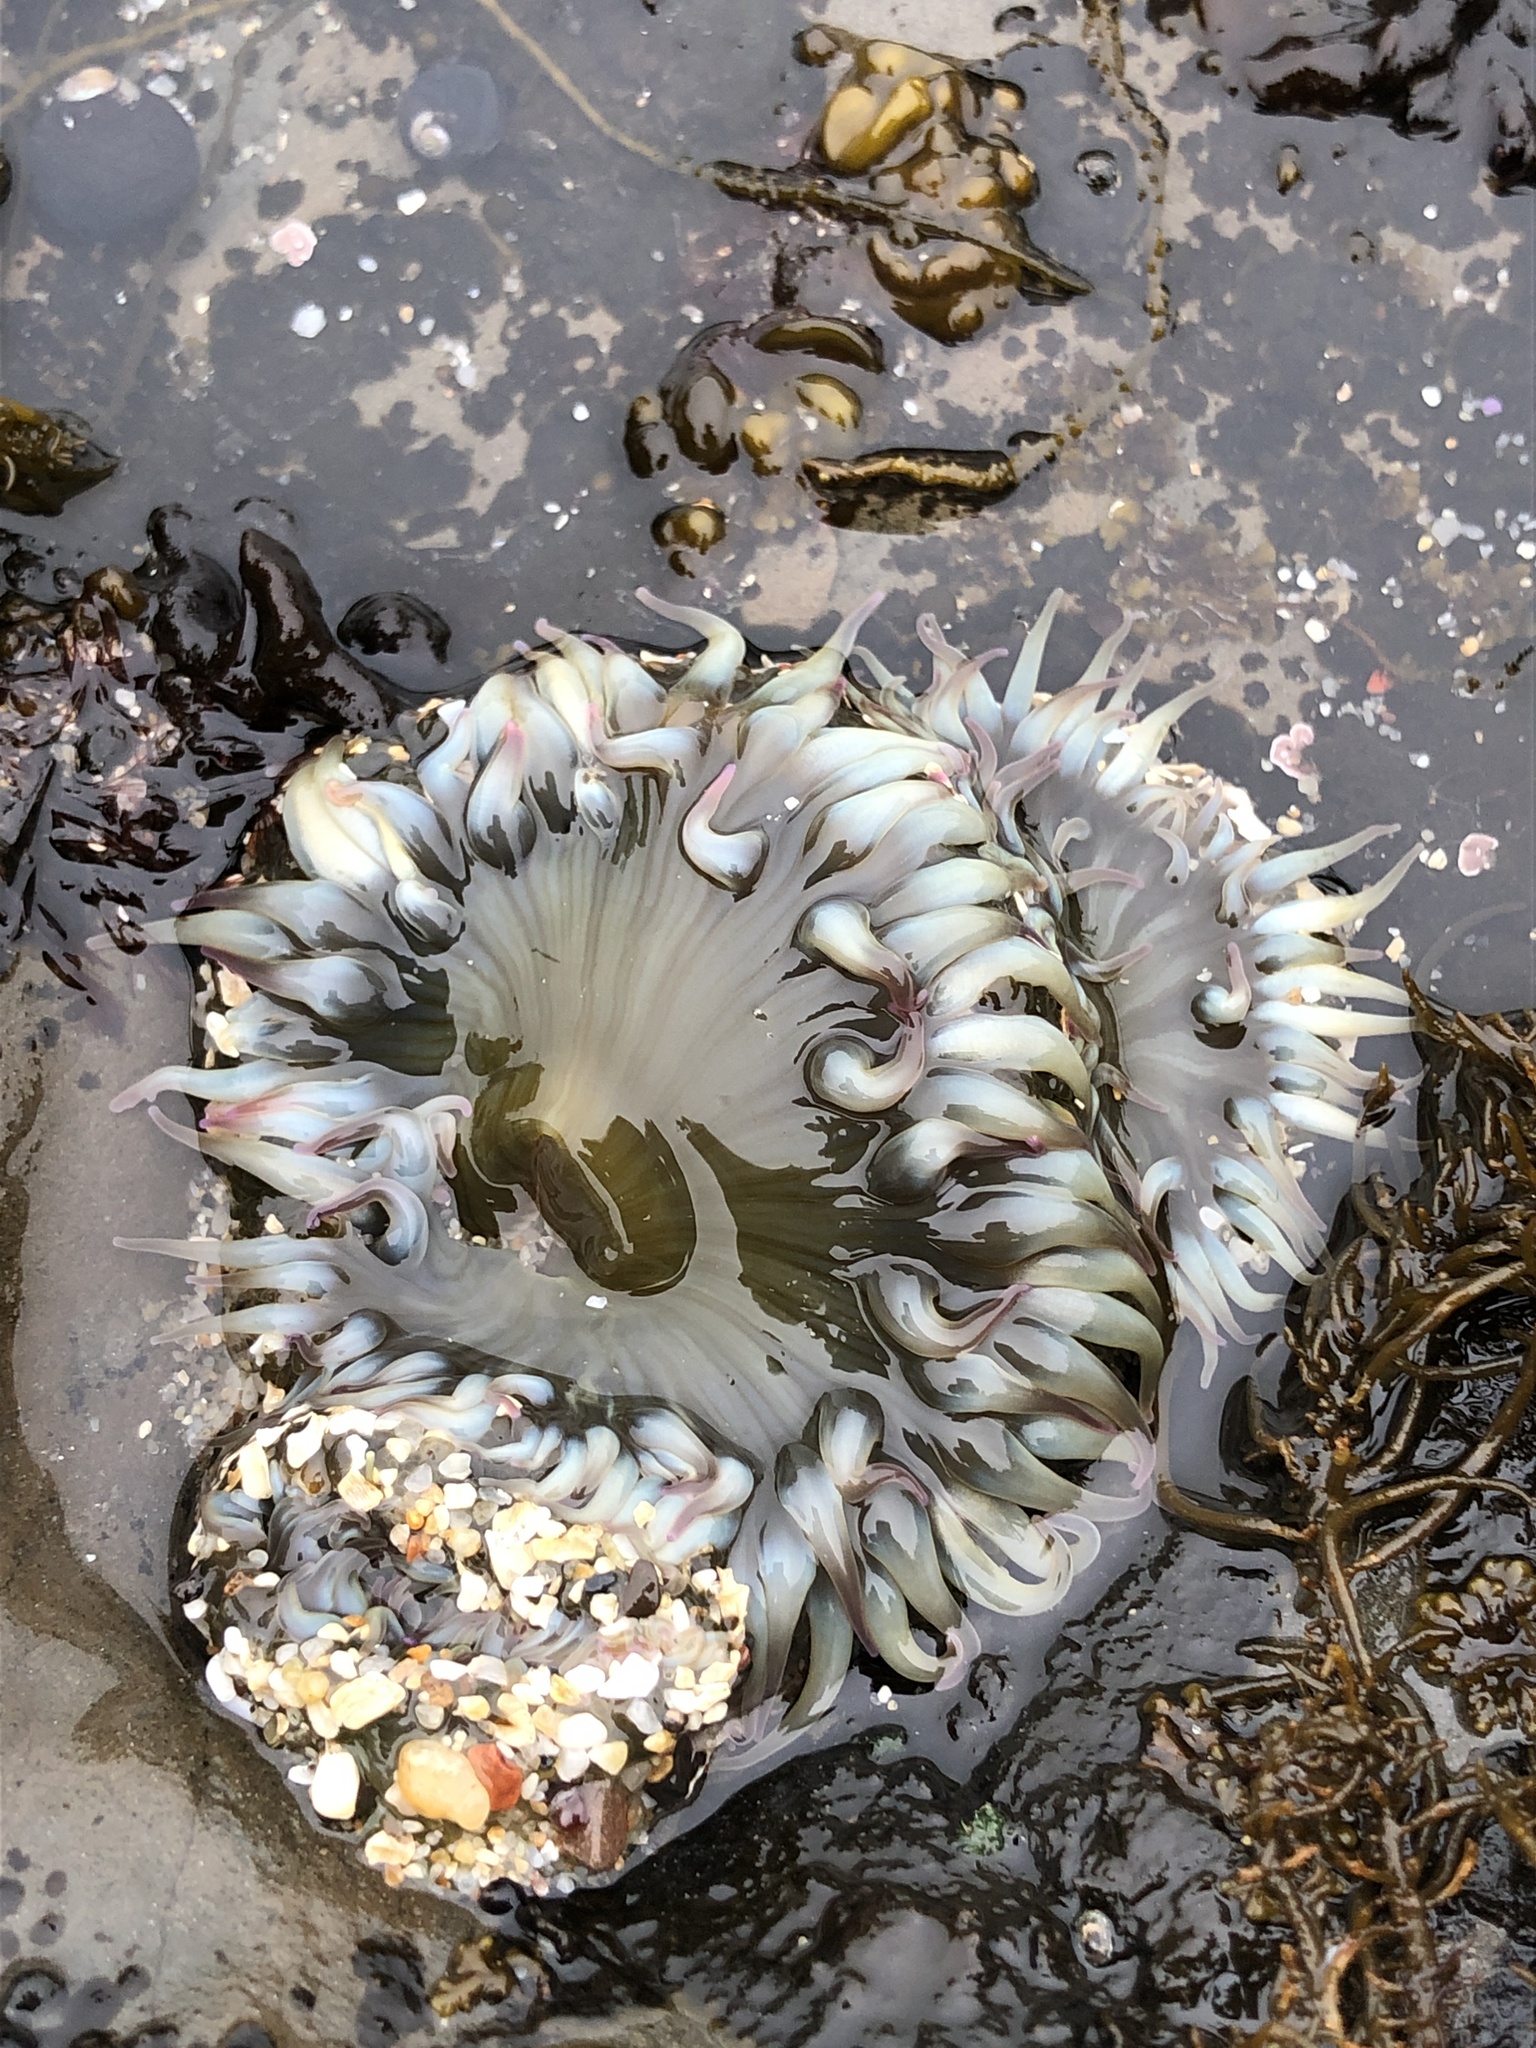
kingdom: Animalia
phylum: Cnidaria
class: Anthozoa
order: Actiniaria
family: Actiniidae
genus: Anthopleura
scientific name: Anthopleura elegantissima
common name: Clonal anemone
